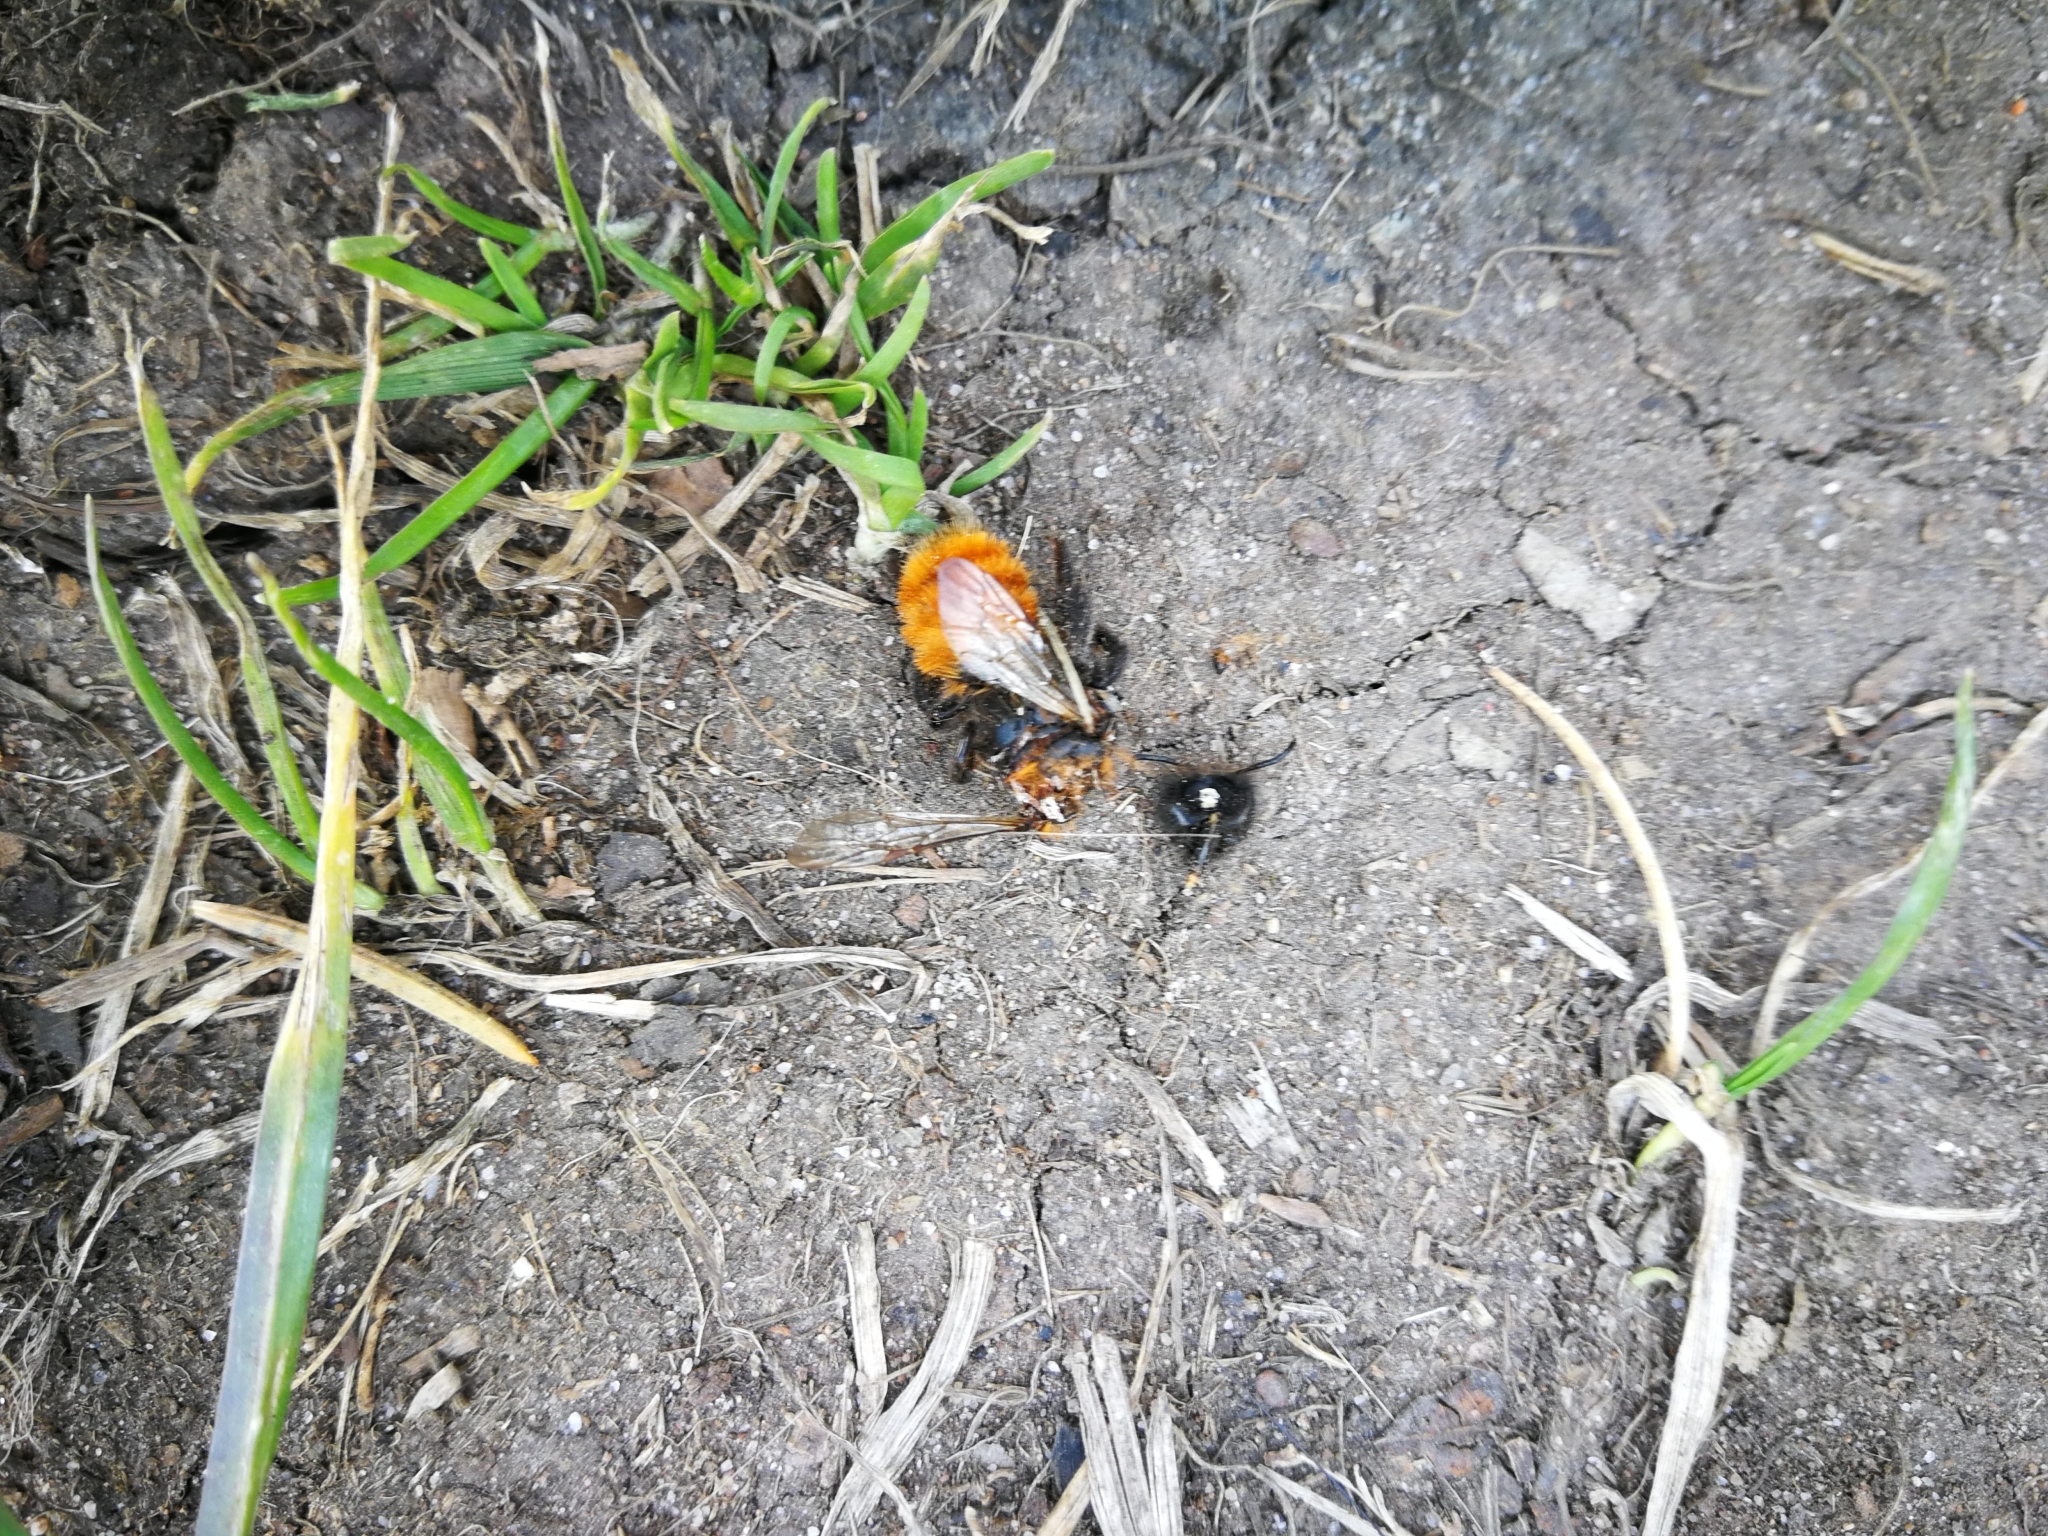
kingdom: Animalia
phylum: Arthropoda
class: Insecta
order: Hymenoptera
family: Andrenidae
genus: Andrena
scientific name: Andrena fulva
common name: Tawny mining bee
